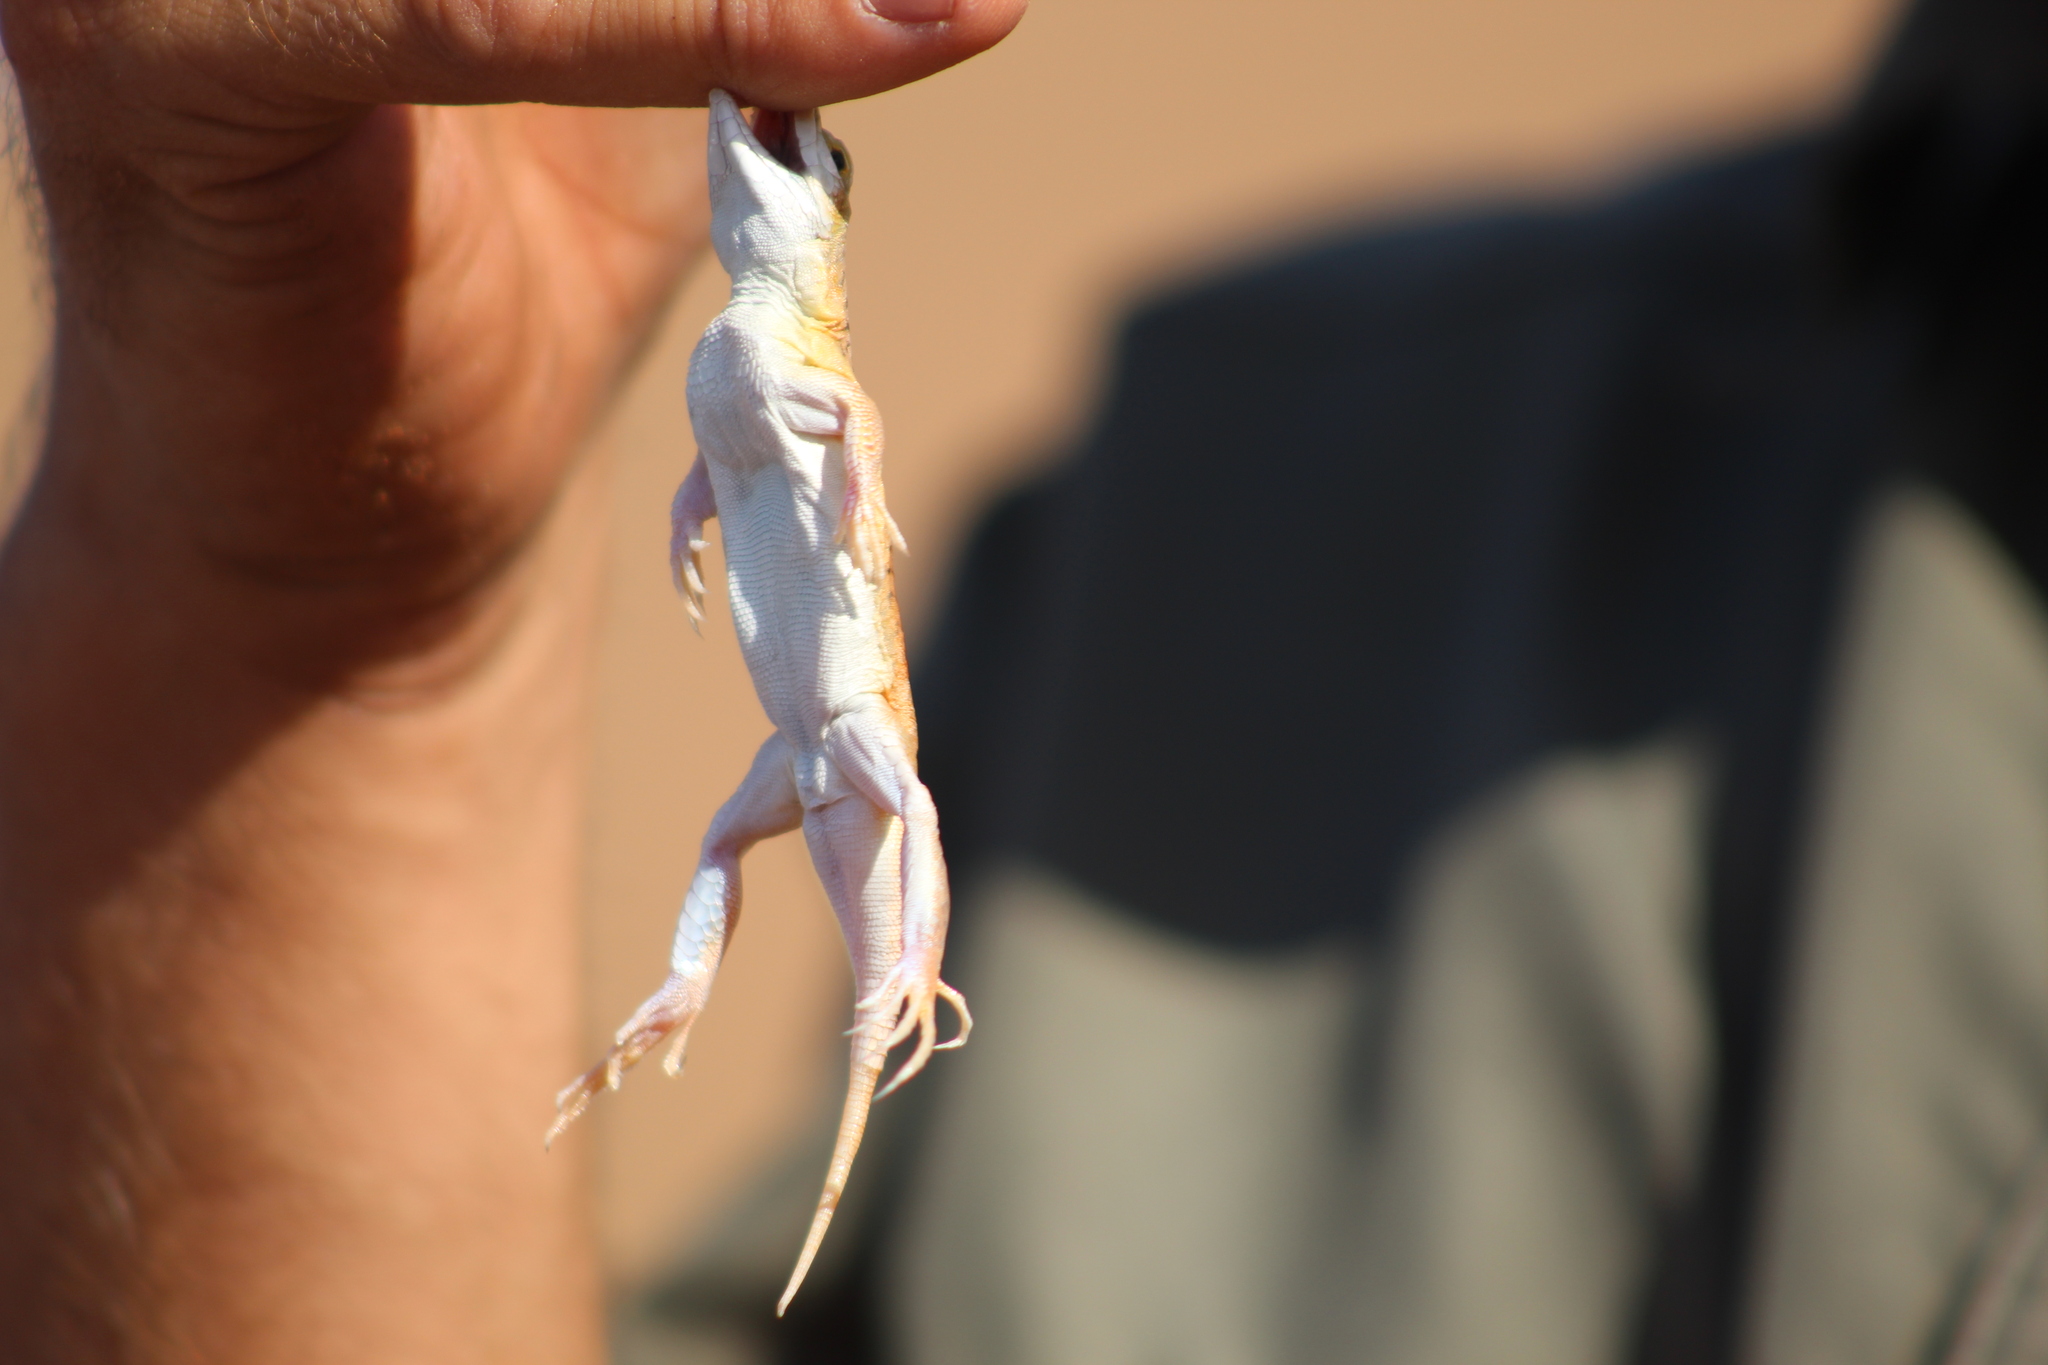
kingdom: Animalia
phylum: Chordata
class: Squamata
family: Lacertidae
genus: Meroles
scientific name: Meroles anchietae
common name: Anchieta’s dune or shovel-snouted lizard
